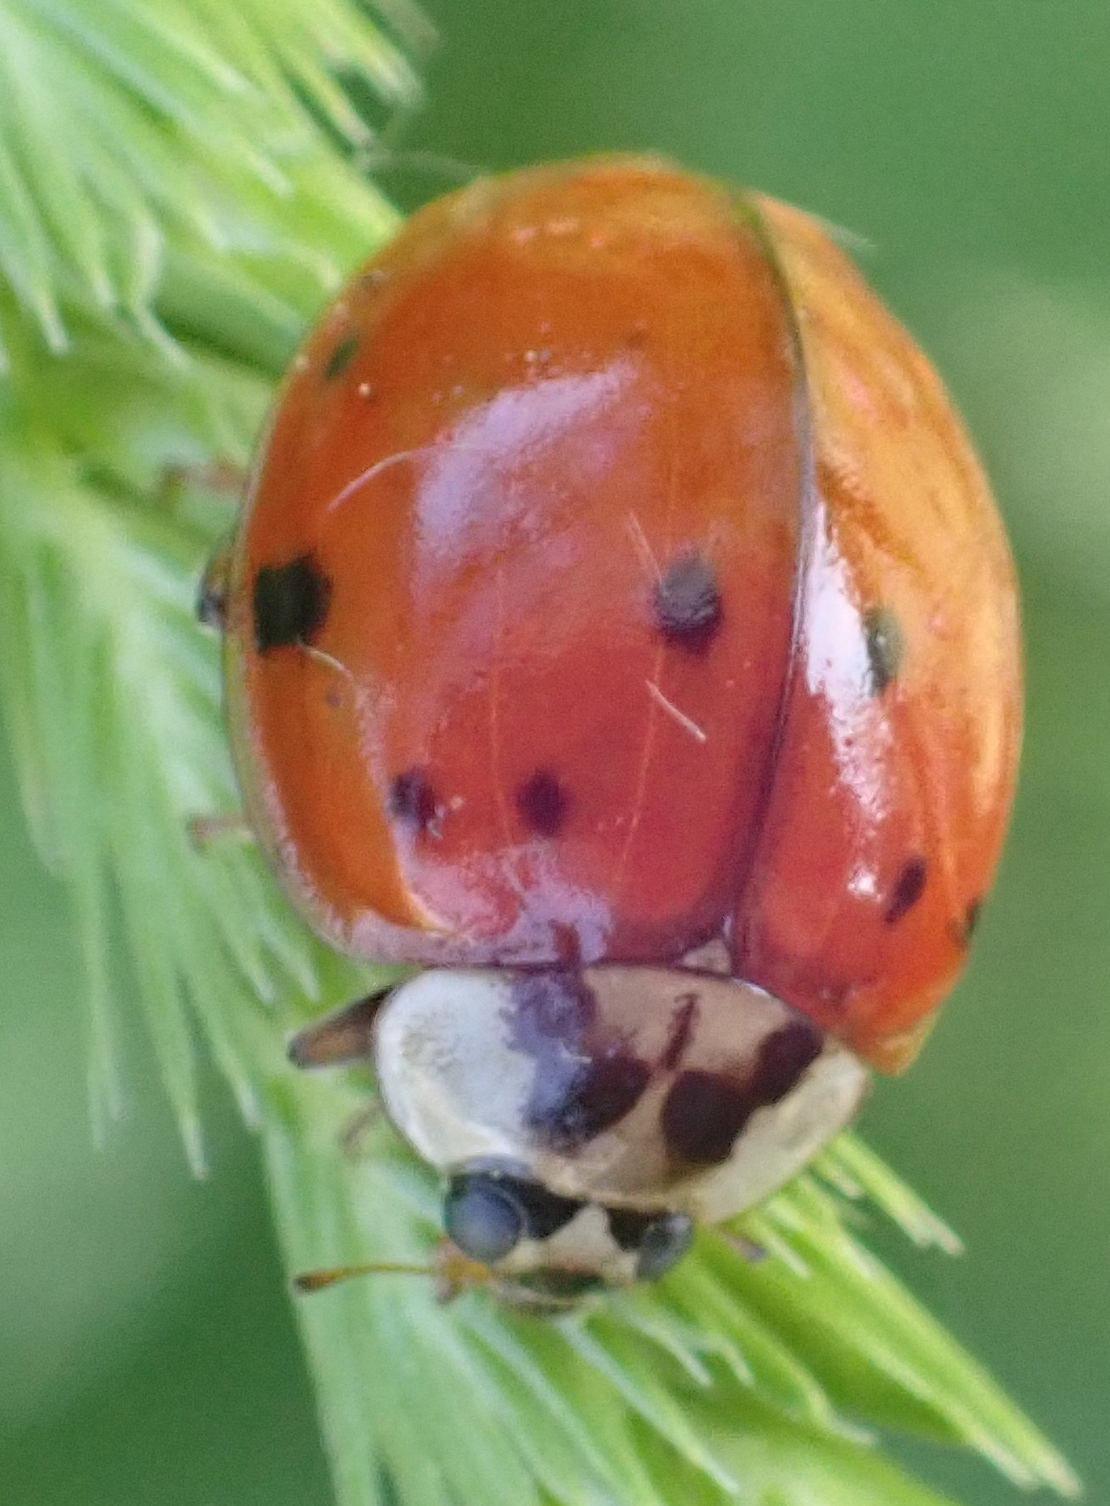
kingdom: Animalia
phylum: Arthropoda
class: Insecta
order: Coleoptera
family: Coccinellidae
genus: Harmonia
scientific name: Harmonia axyridis
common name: Harlequin ladybird
